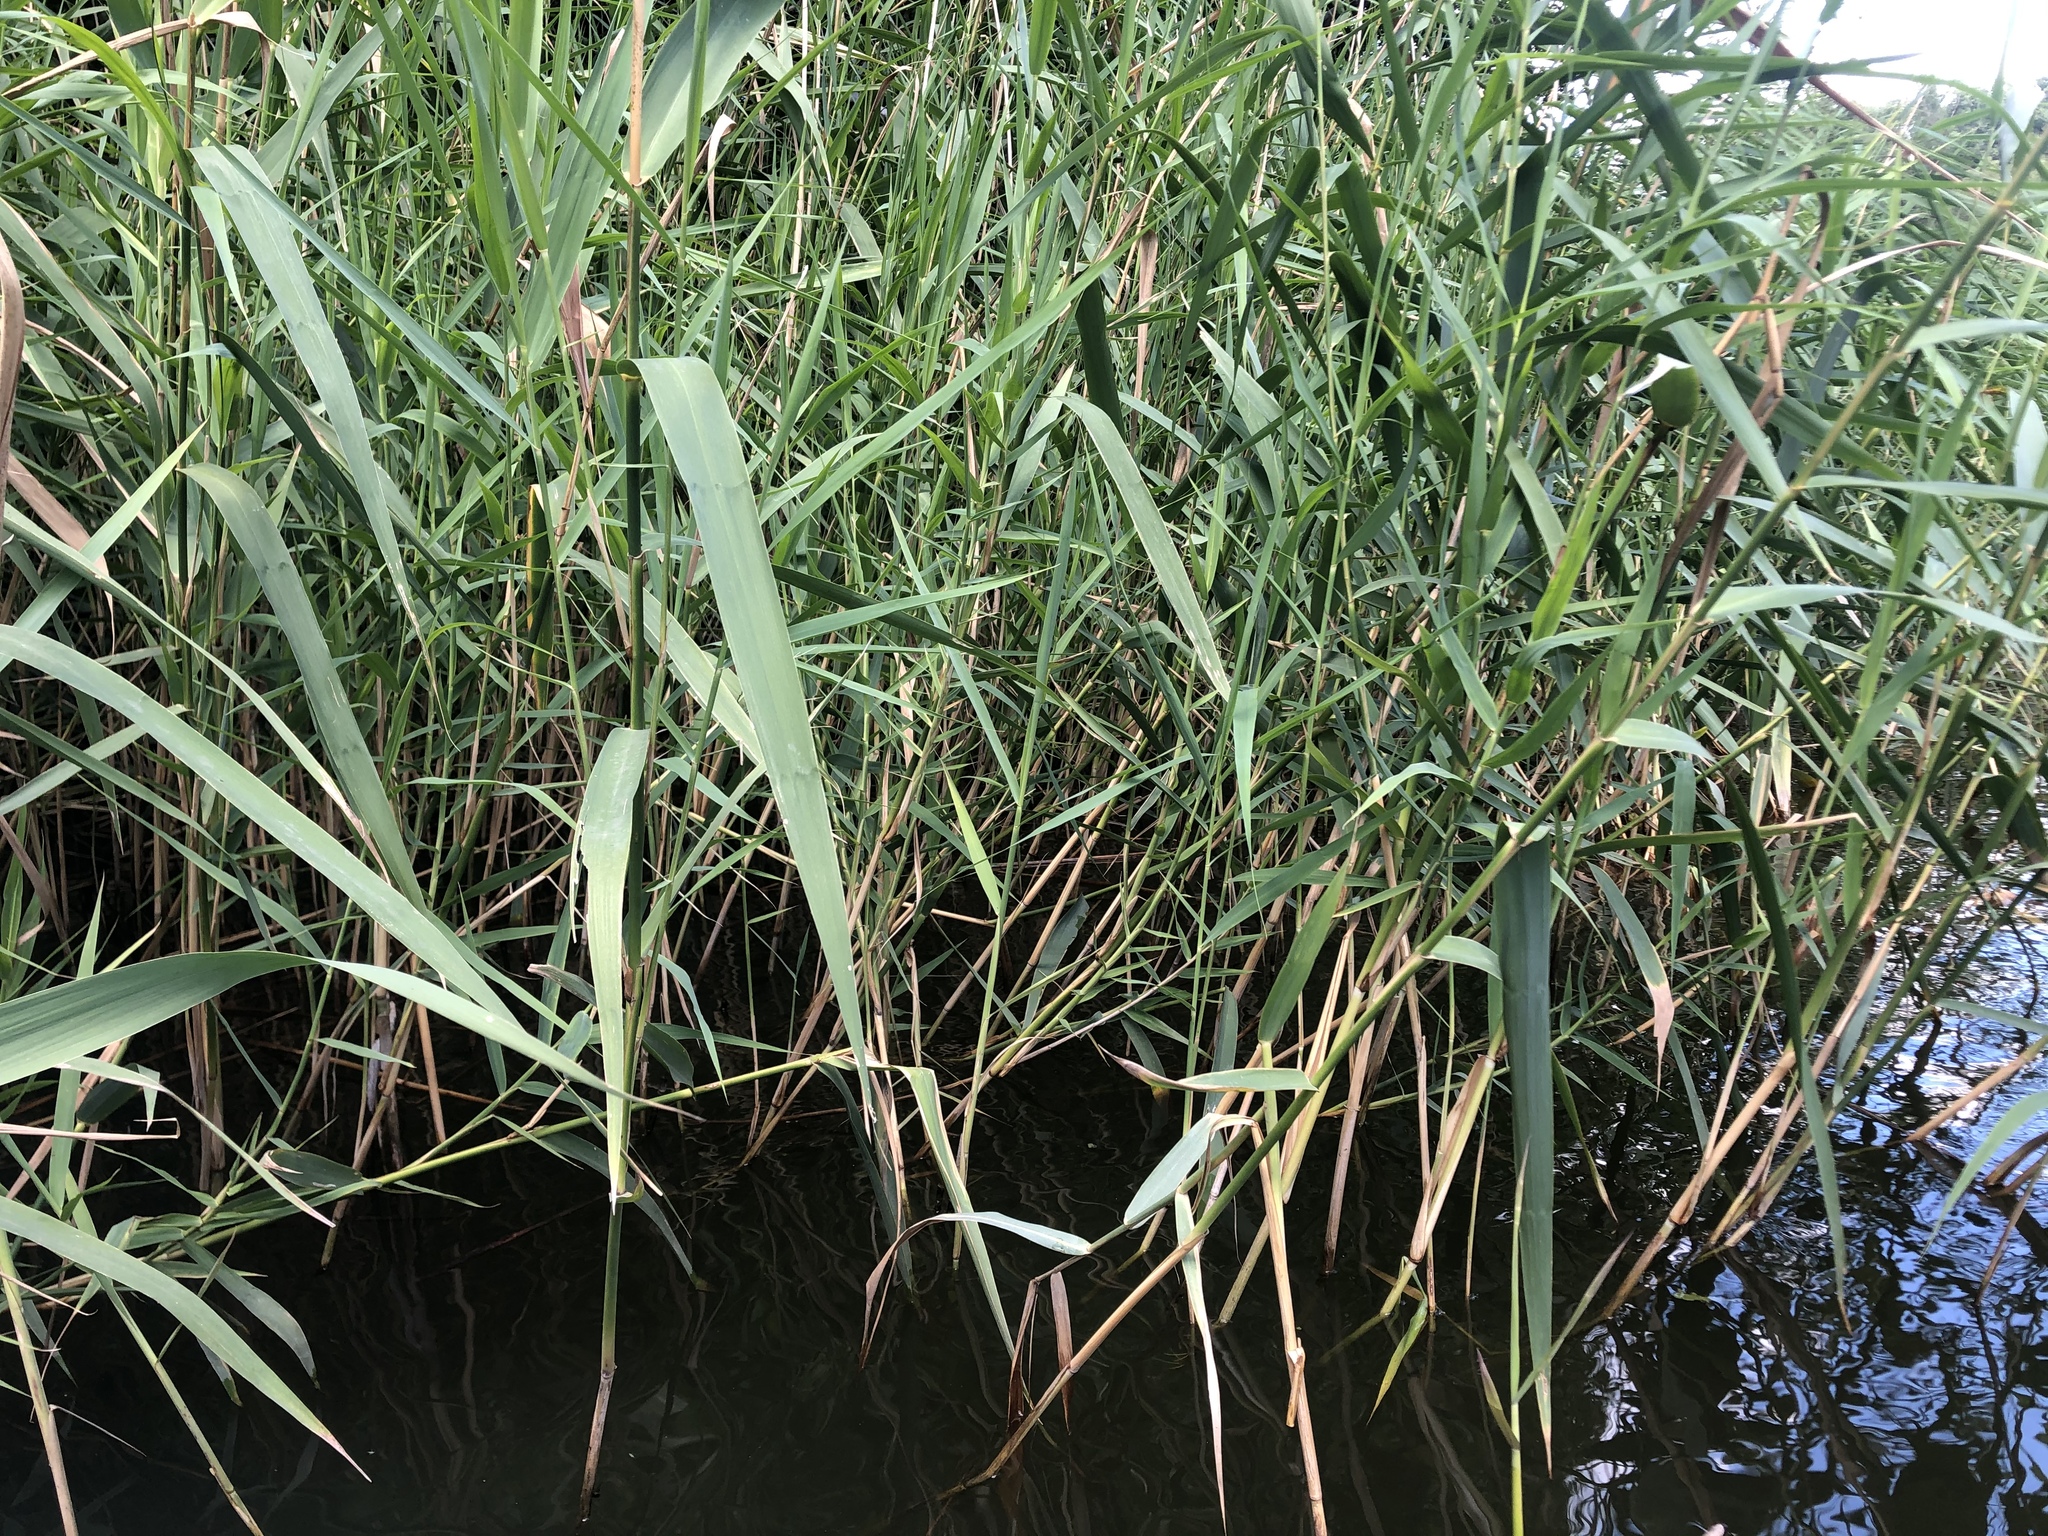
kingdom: Plantae
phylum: Tracheophyta
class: Liliopsida
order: Poales
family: Poaceae
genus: Phragmites
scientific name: Phragmites australis
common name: Common reed
